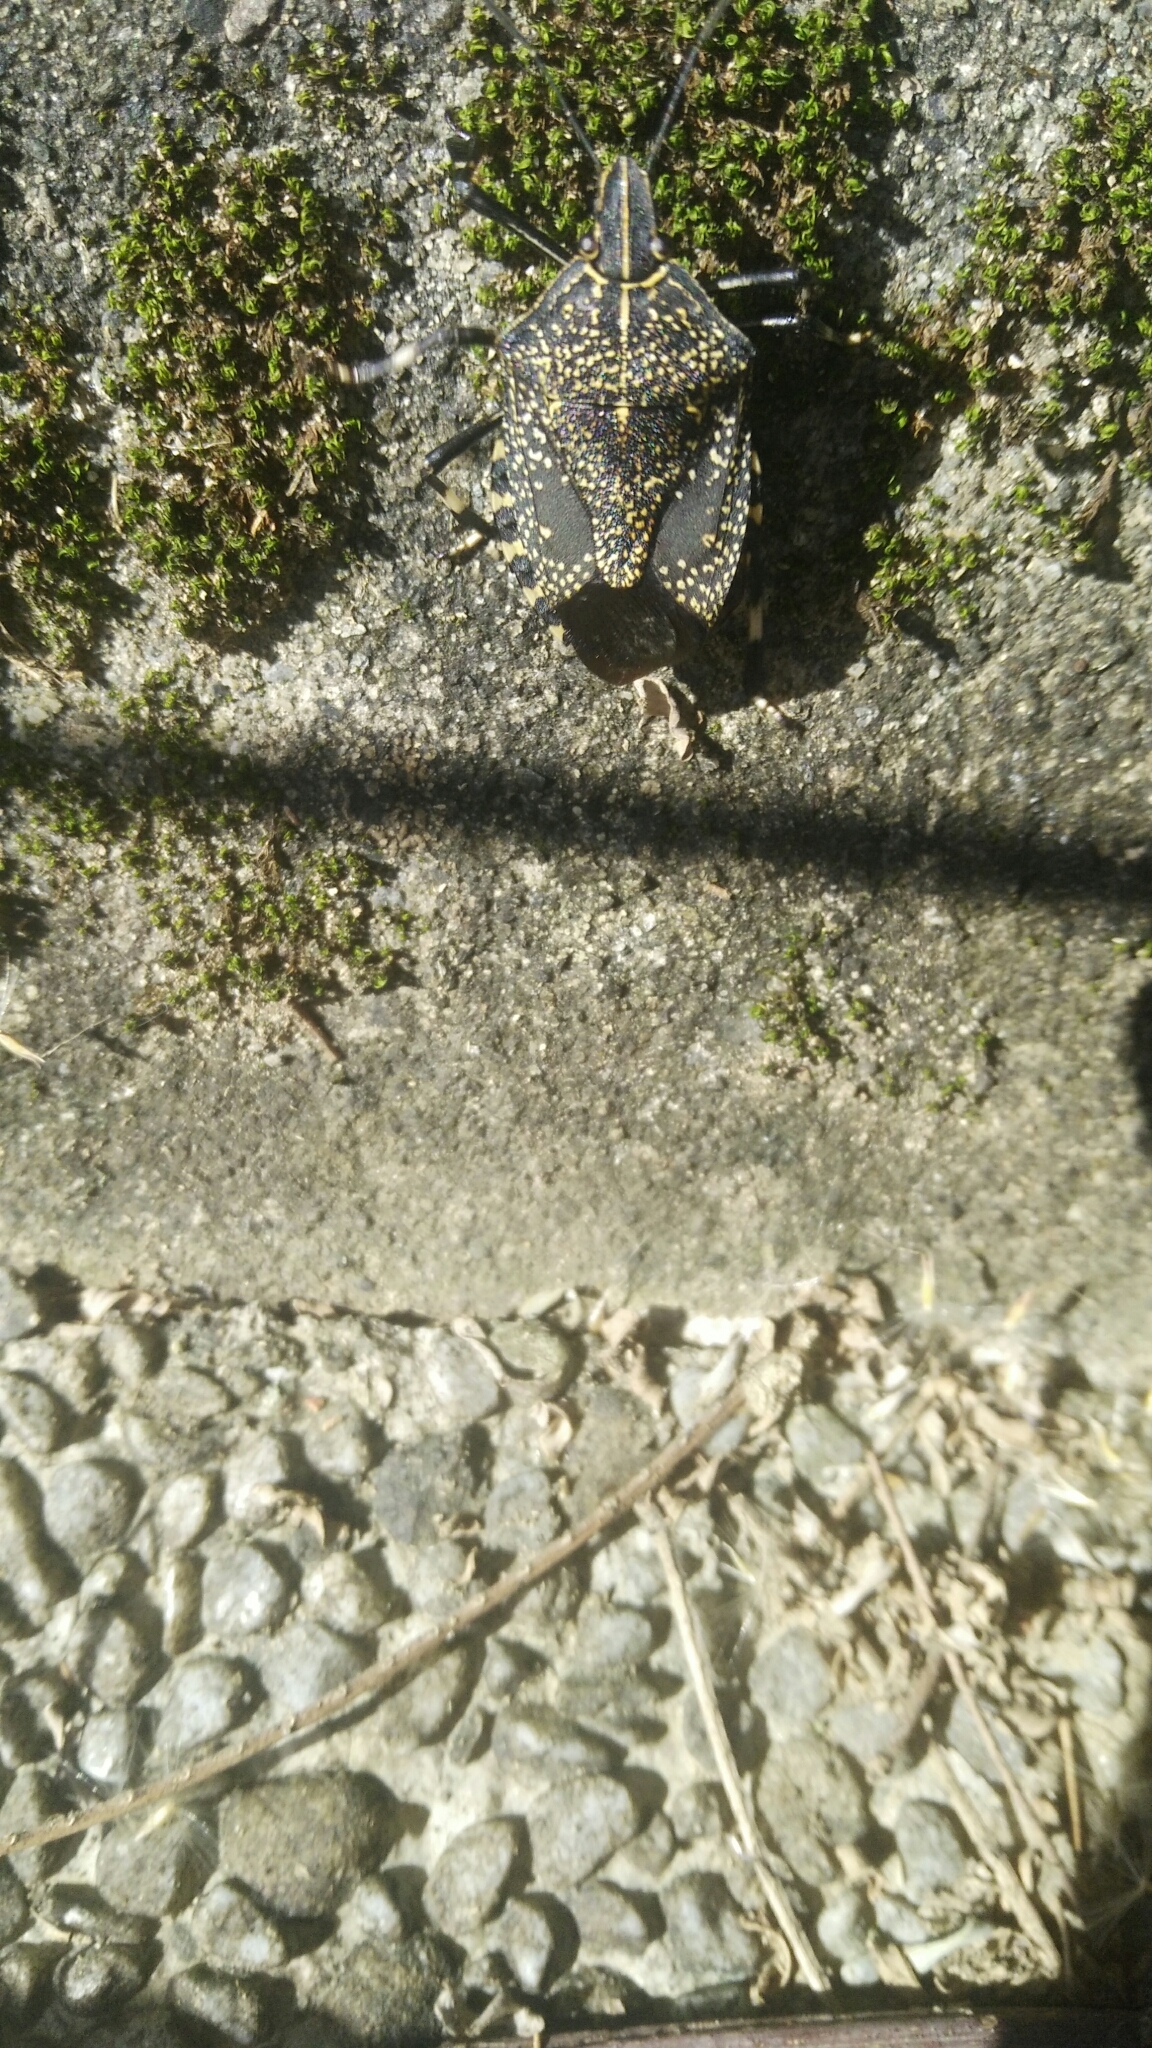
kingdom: Animalia
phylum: Arthropoda
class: Insecta
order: Hemiptera
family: Pentatomidae
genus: Erthesina
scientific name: Erthesina fullo
